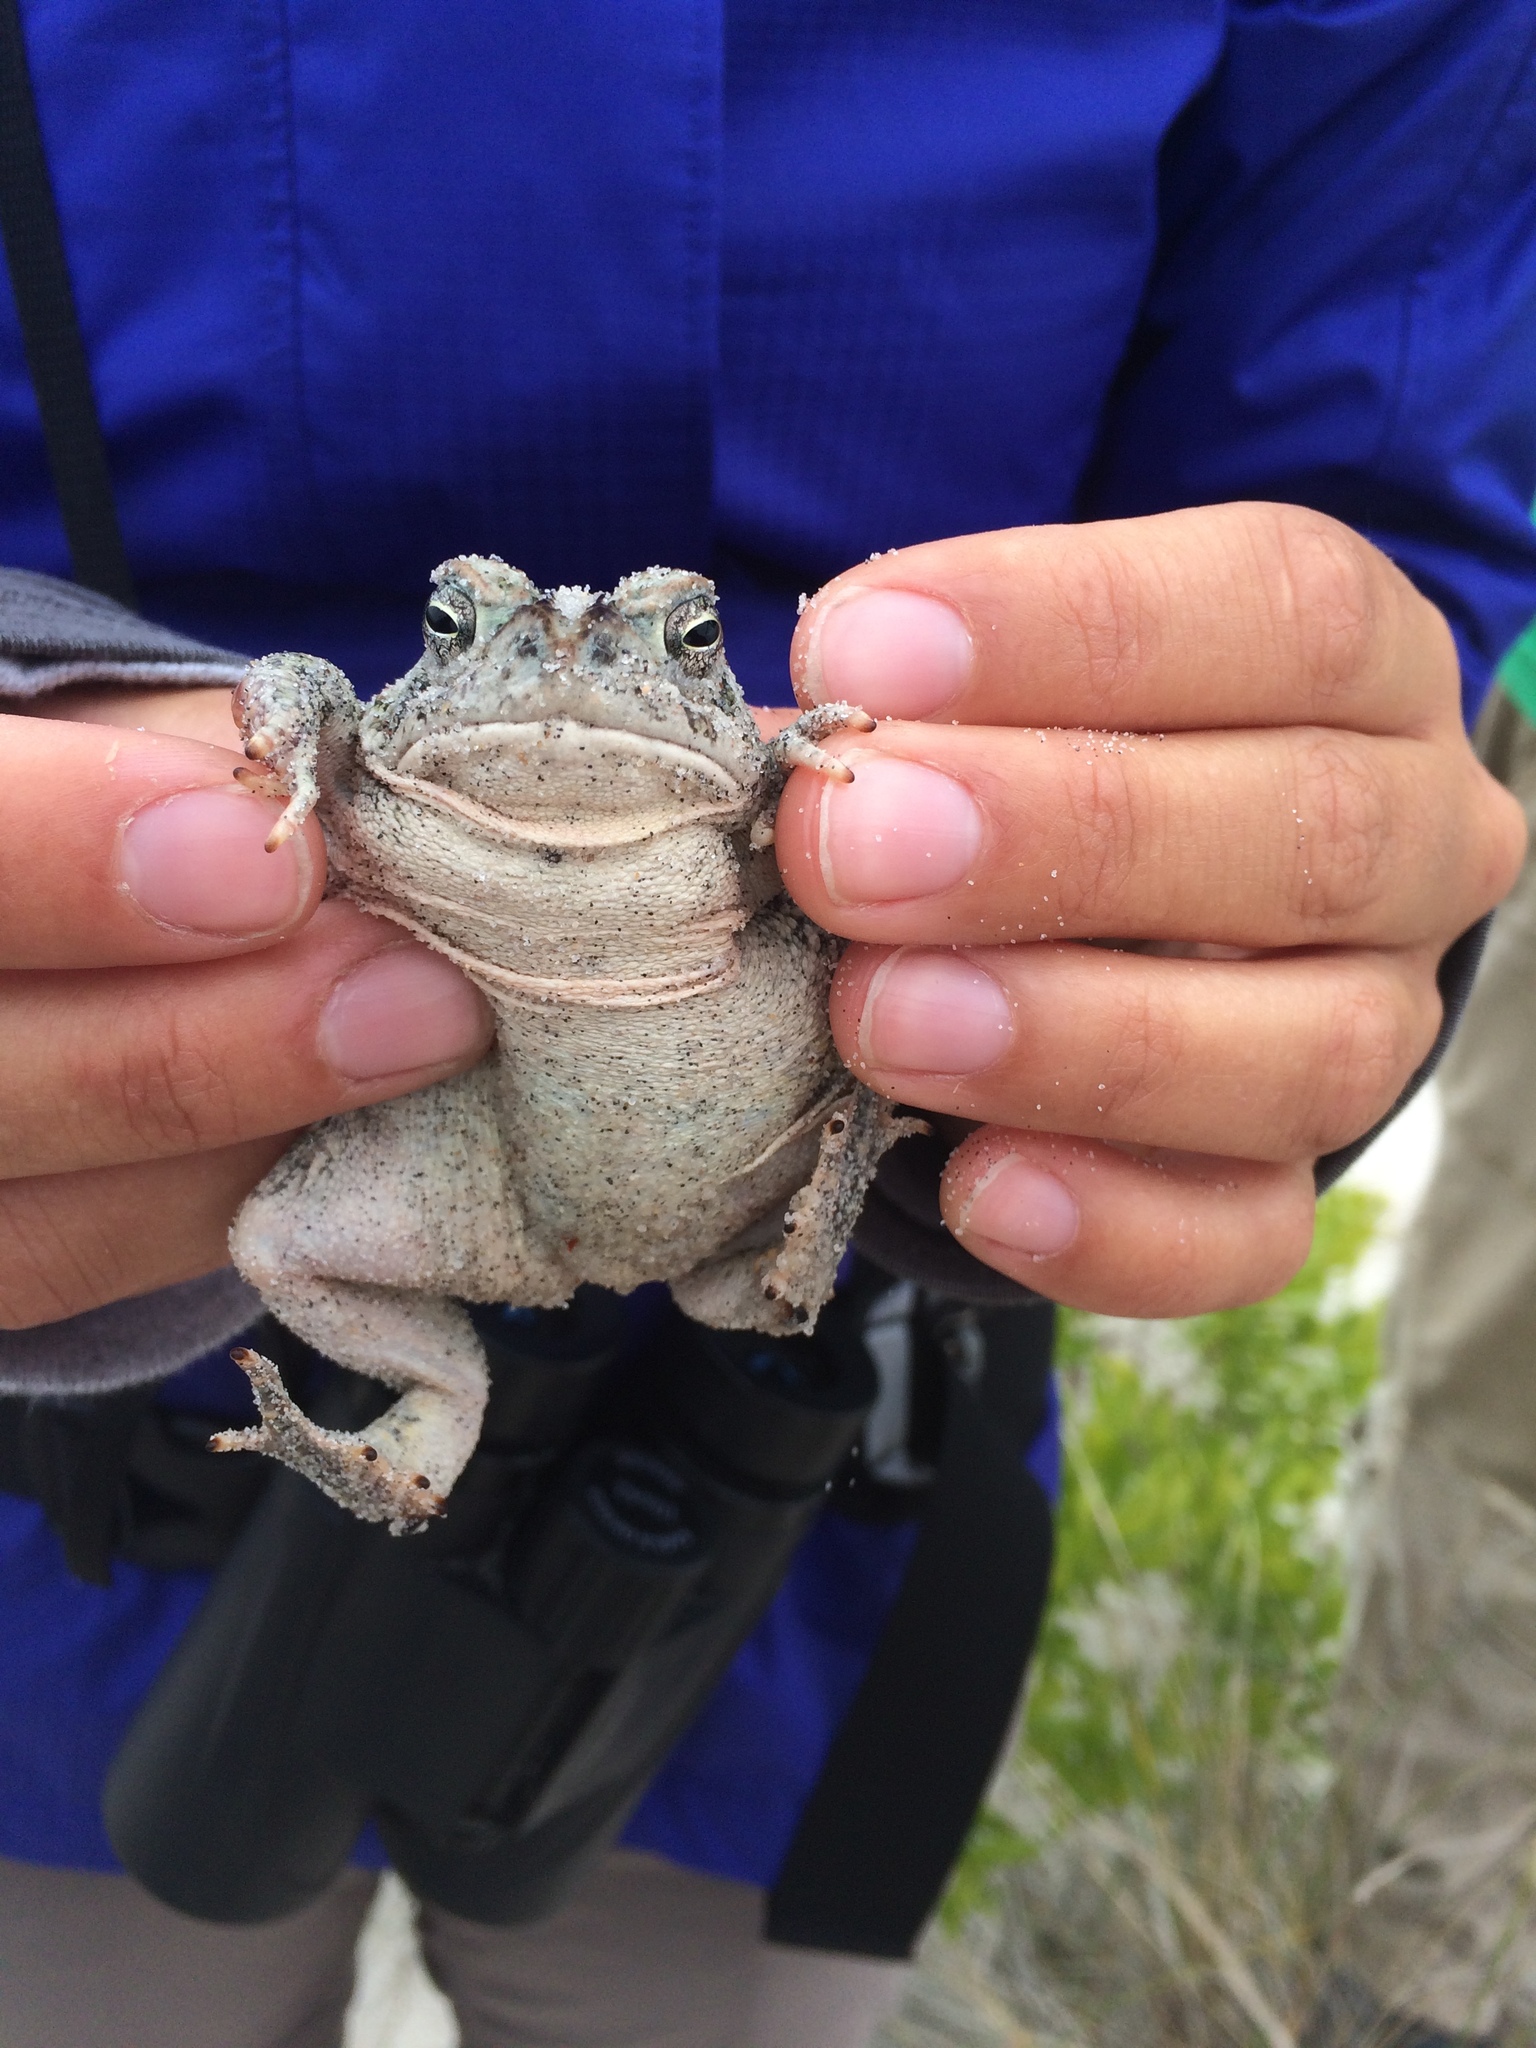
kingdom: Animalia
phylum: Chordata
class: Amphibia
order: Anura
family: Bufonidae
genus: Anaxyrus
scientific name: Anaxyrus fowleri
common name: Fowler's toad
